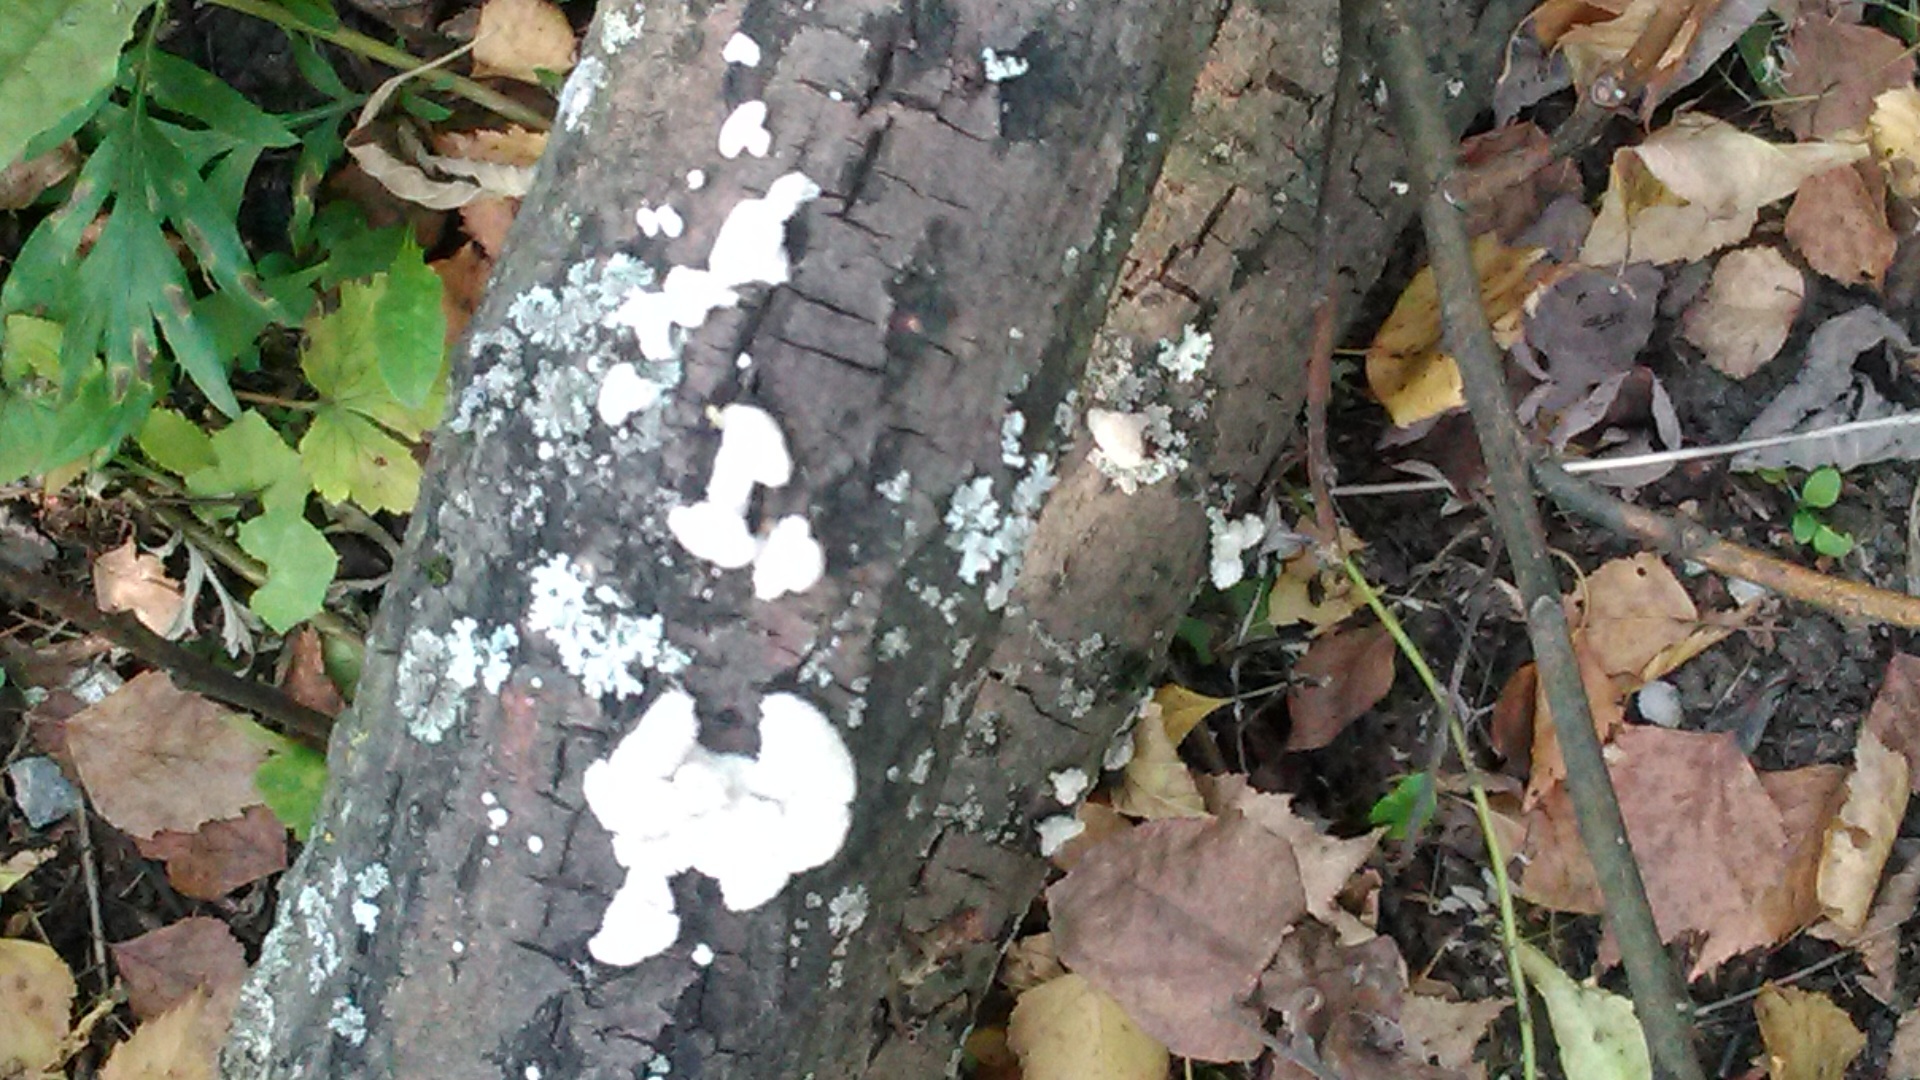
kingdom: Fungi
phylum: Basidiomycota
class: Agaricomycetes
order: Agaricales
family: Schizophyllaceae
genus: Schizophyllum
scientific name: Schizophyllum commune
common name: Common porecrust
